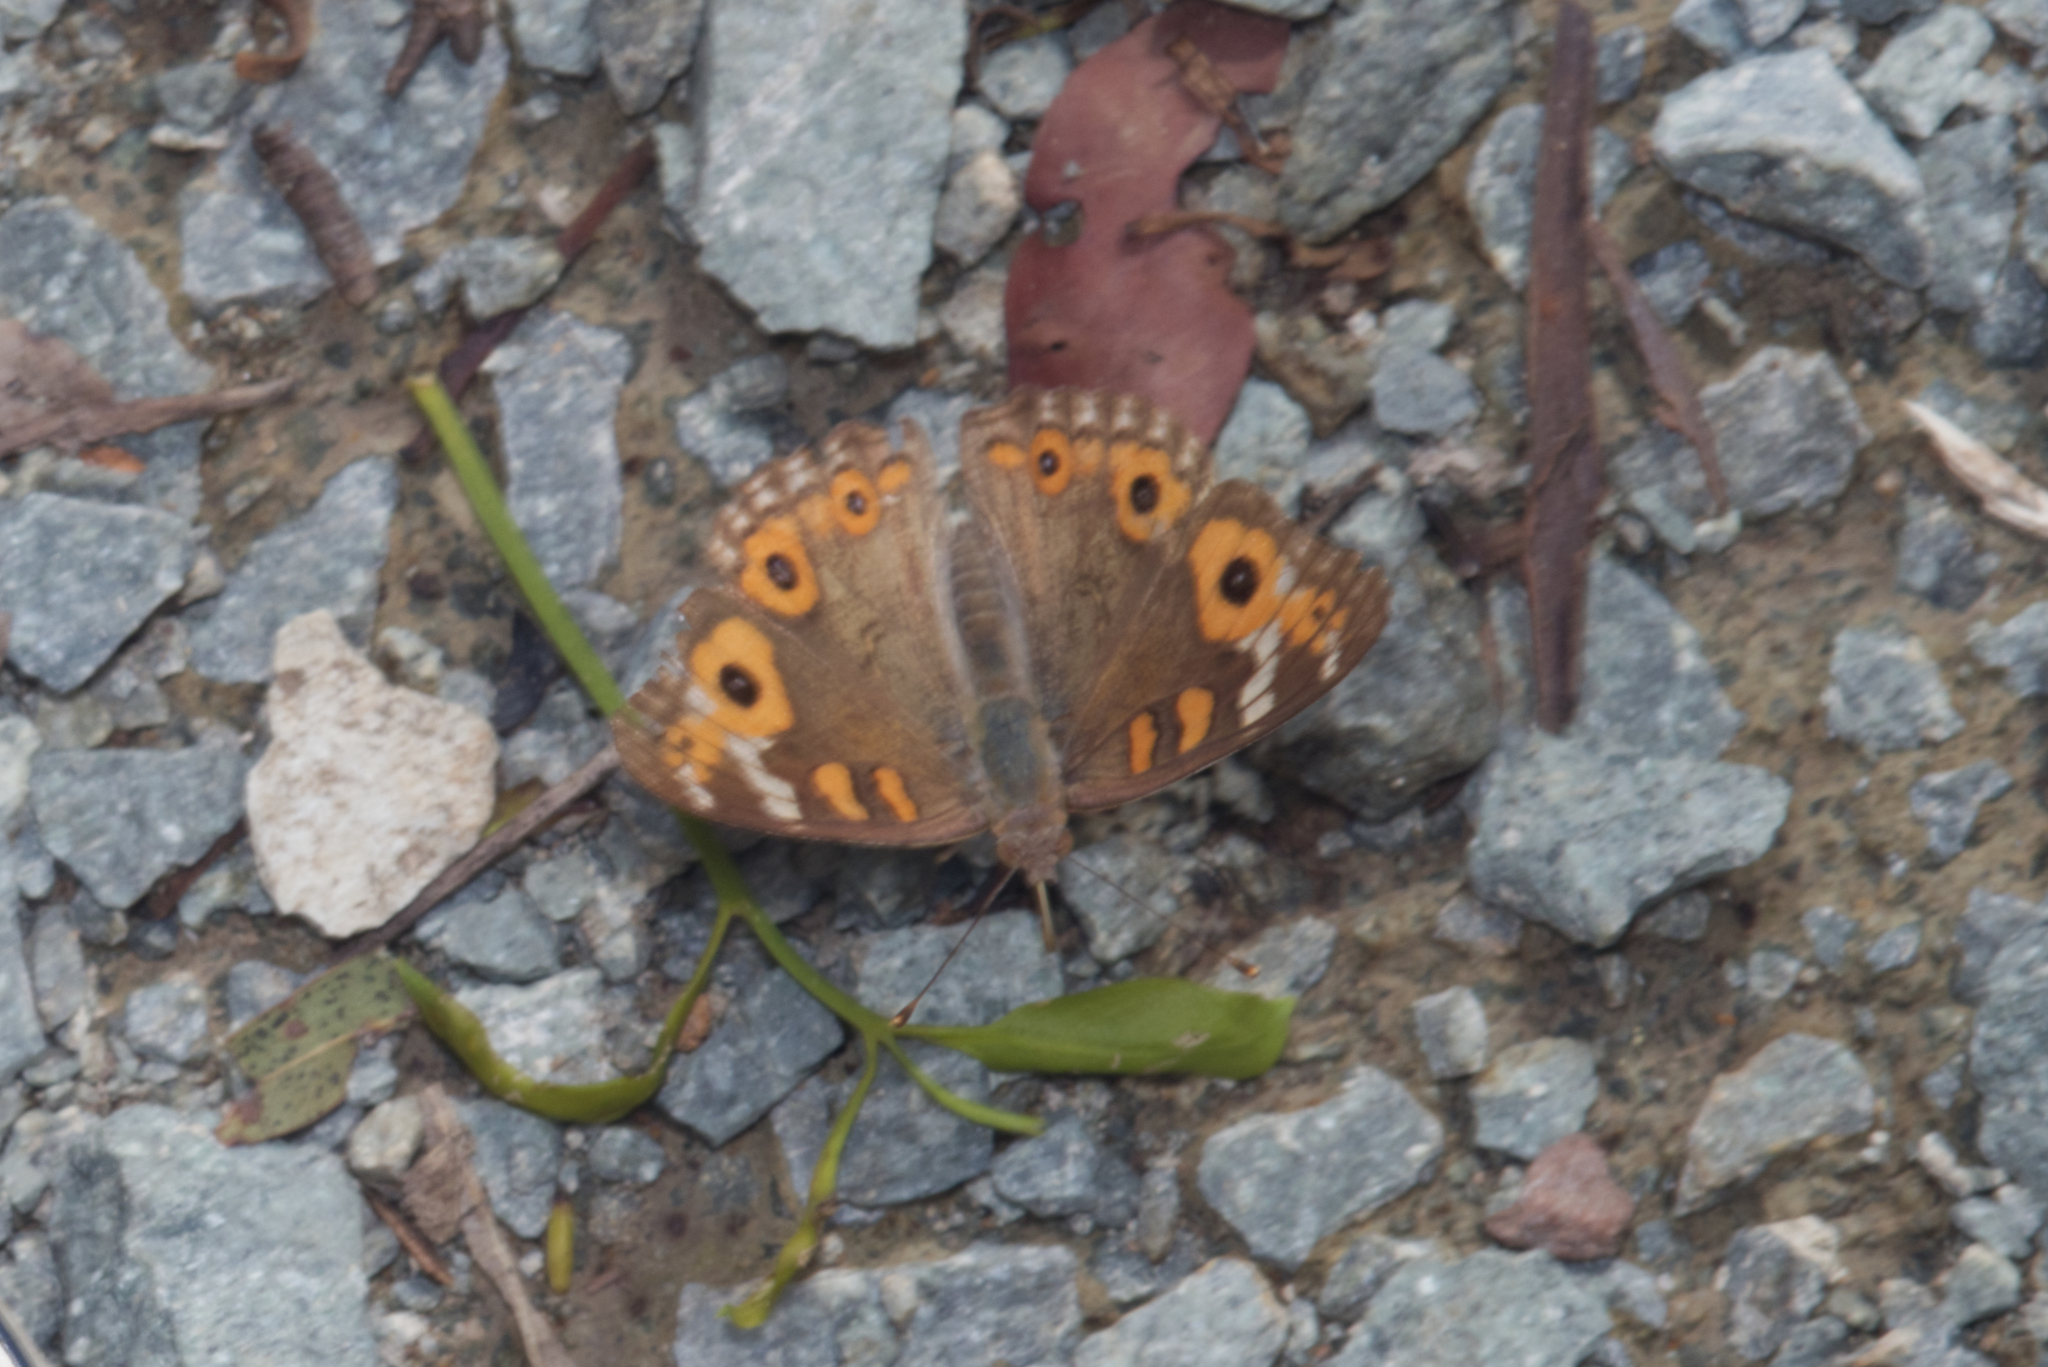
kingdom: Animalia
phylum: Arthropoda
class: Insecta
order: Lepidoptera
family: Nymphalidae
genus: Junonia
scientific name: Junonia villida
